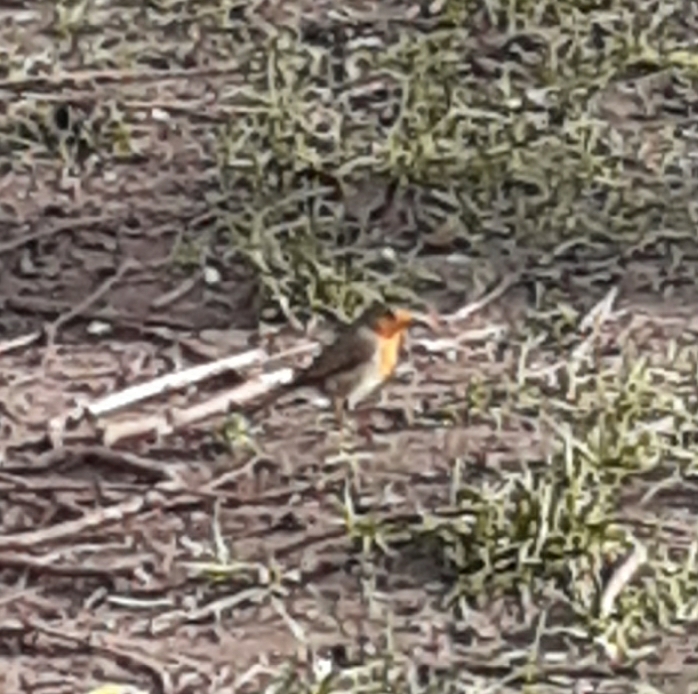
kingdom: Animalia
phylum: Chordata
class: Aves
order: Passeriformes
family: Muscicapidae
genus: Erithacus
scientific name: Erithacus rubecula
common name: European robin
